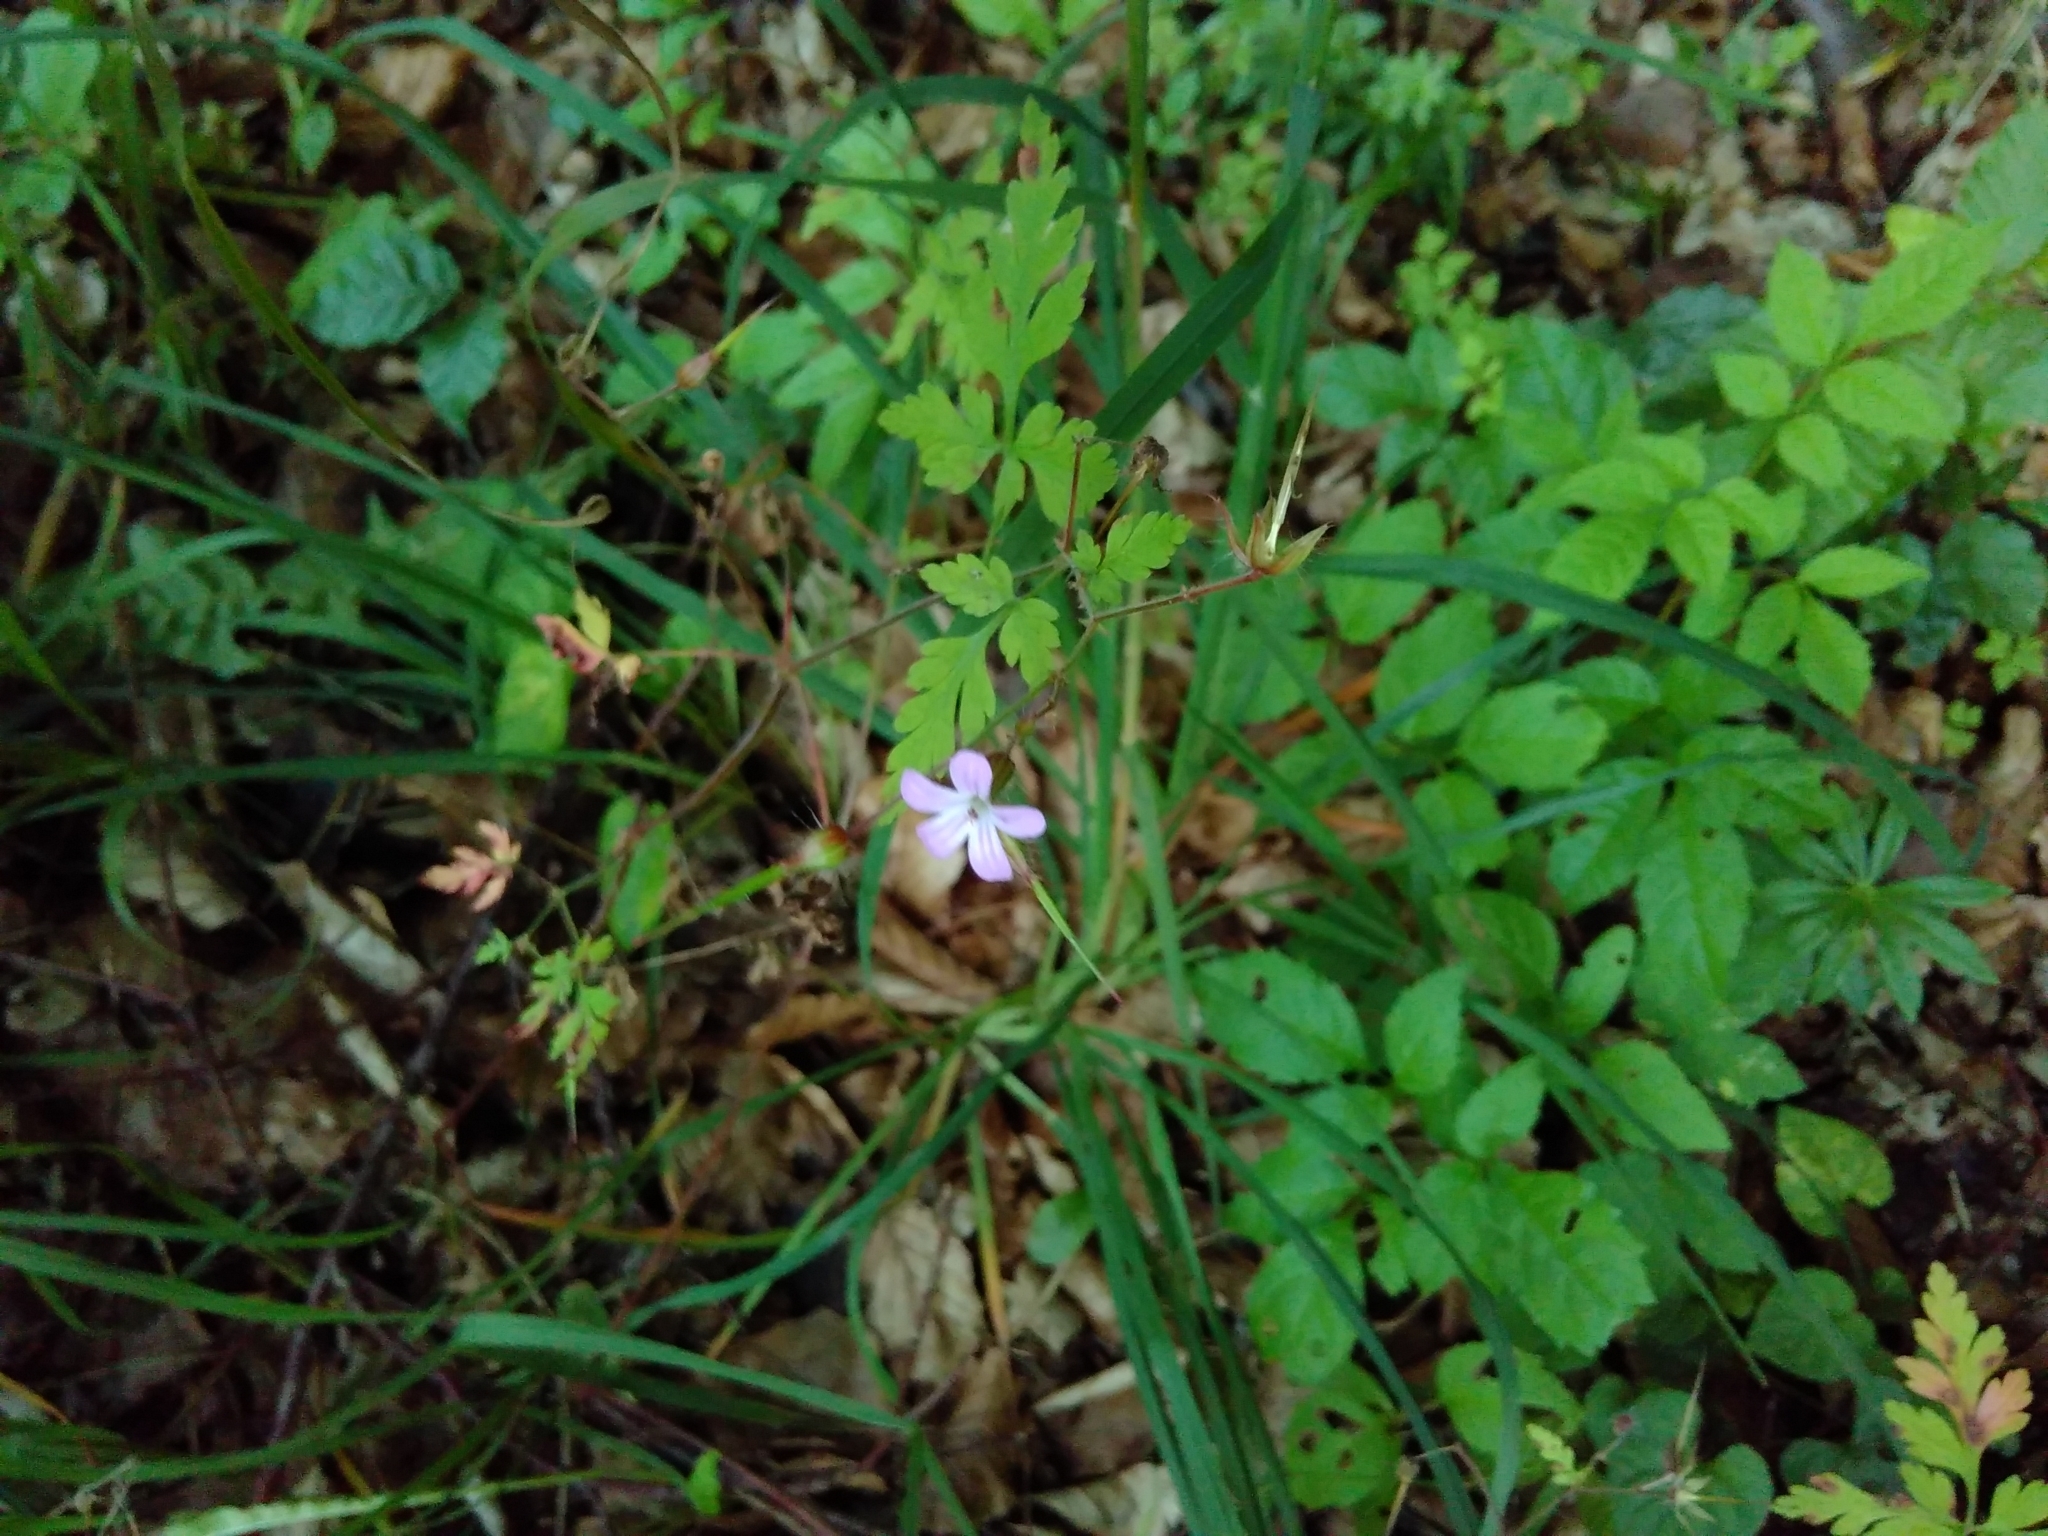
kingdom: Plantae
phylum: Tracheophyta
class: Magnoliopsida
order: Geraniales
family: Geraniaceae
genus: Geranium
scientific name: Geranium robertianum
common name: Herb-robert
